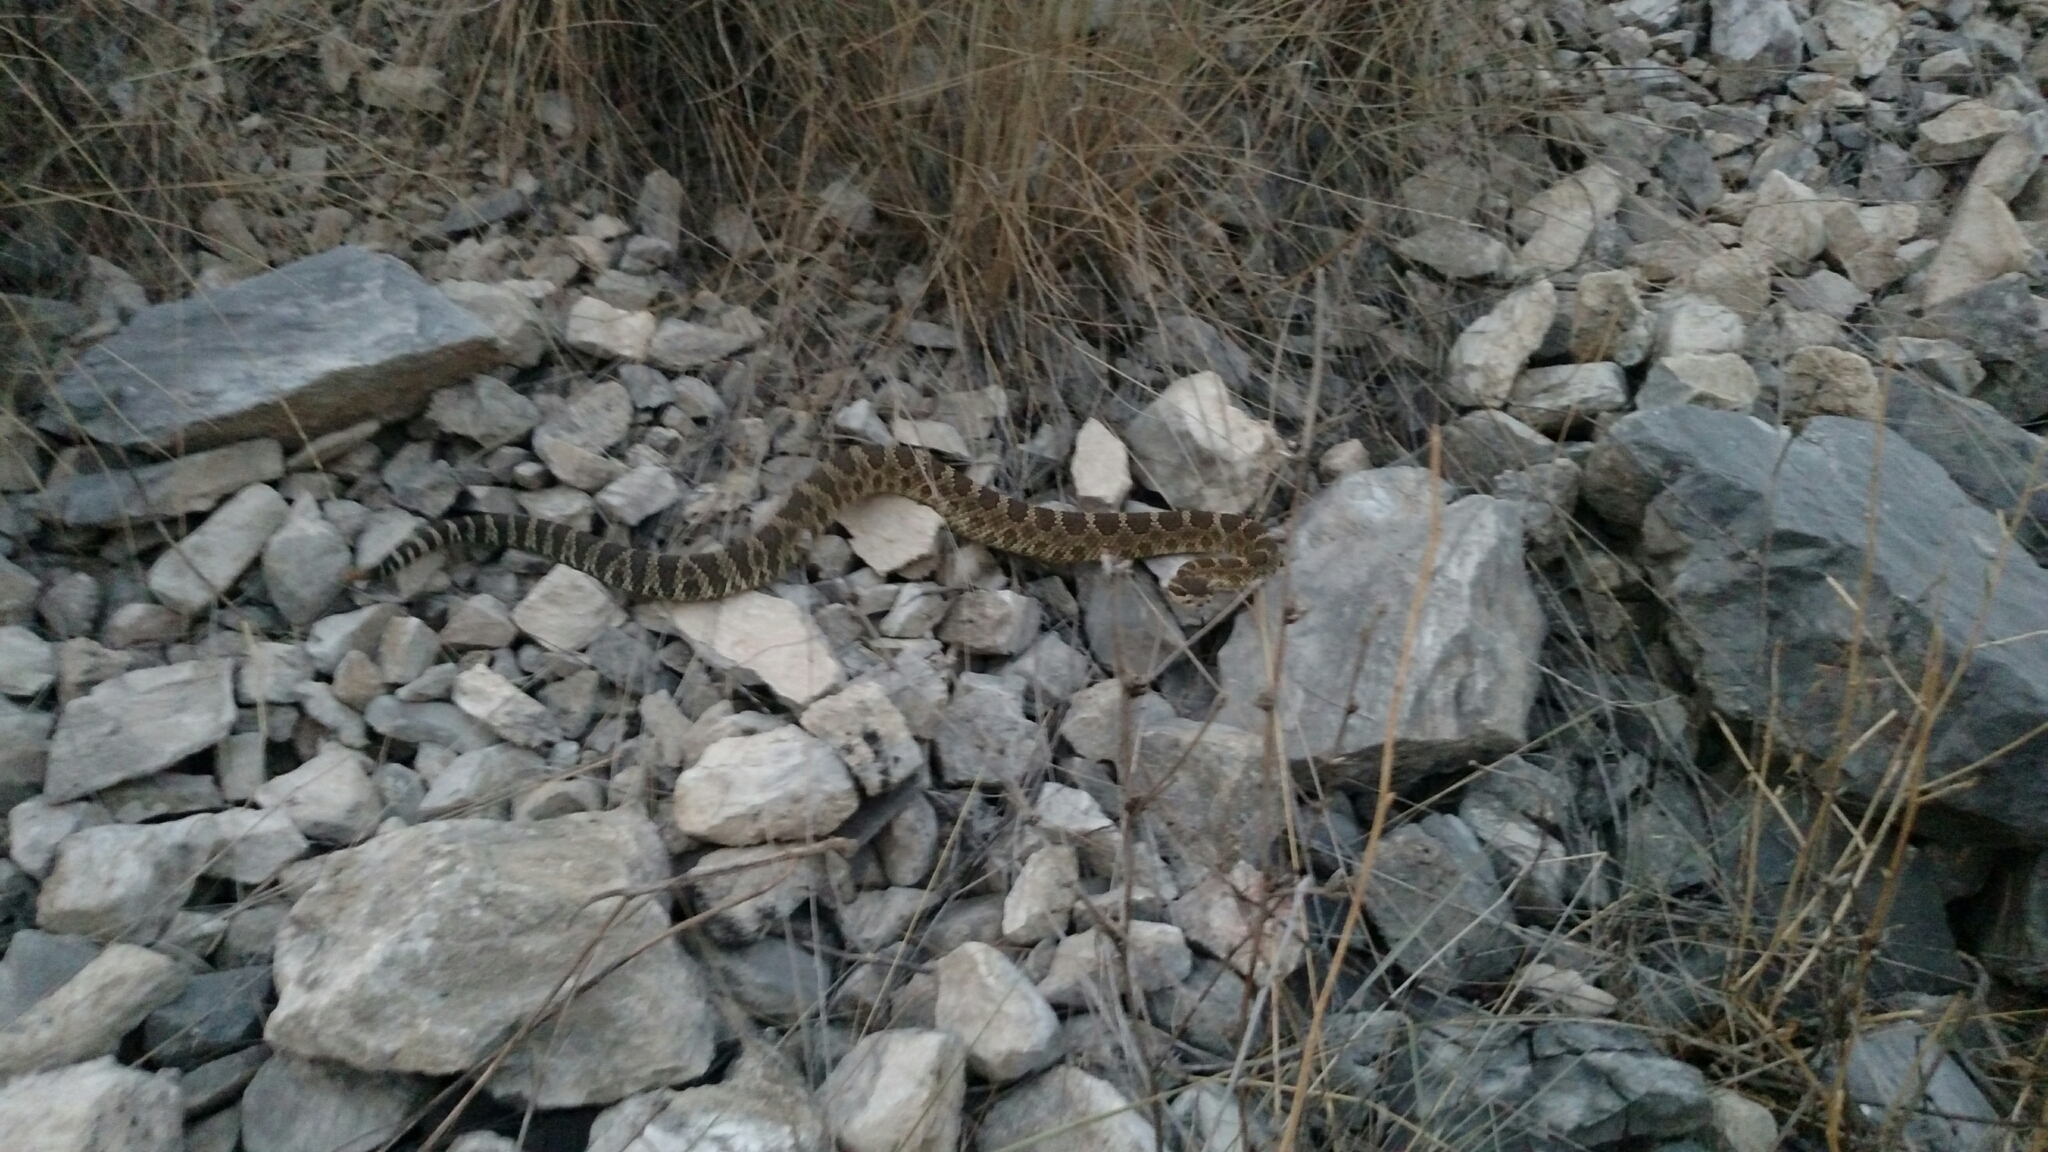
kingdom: Animalia
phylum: Chordata
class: Squamata
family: Viperidae
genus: Crotalus
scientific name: Crotalus oreganus
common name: Abyssus
